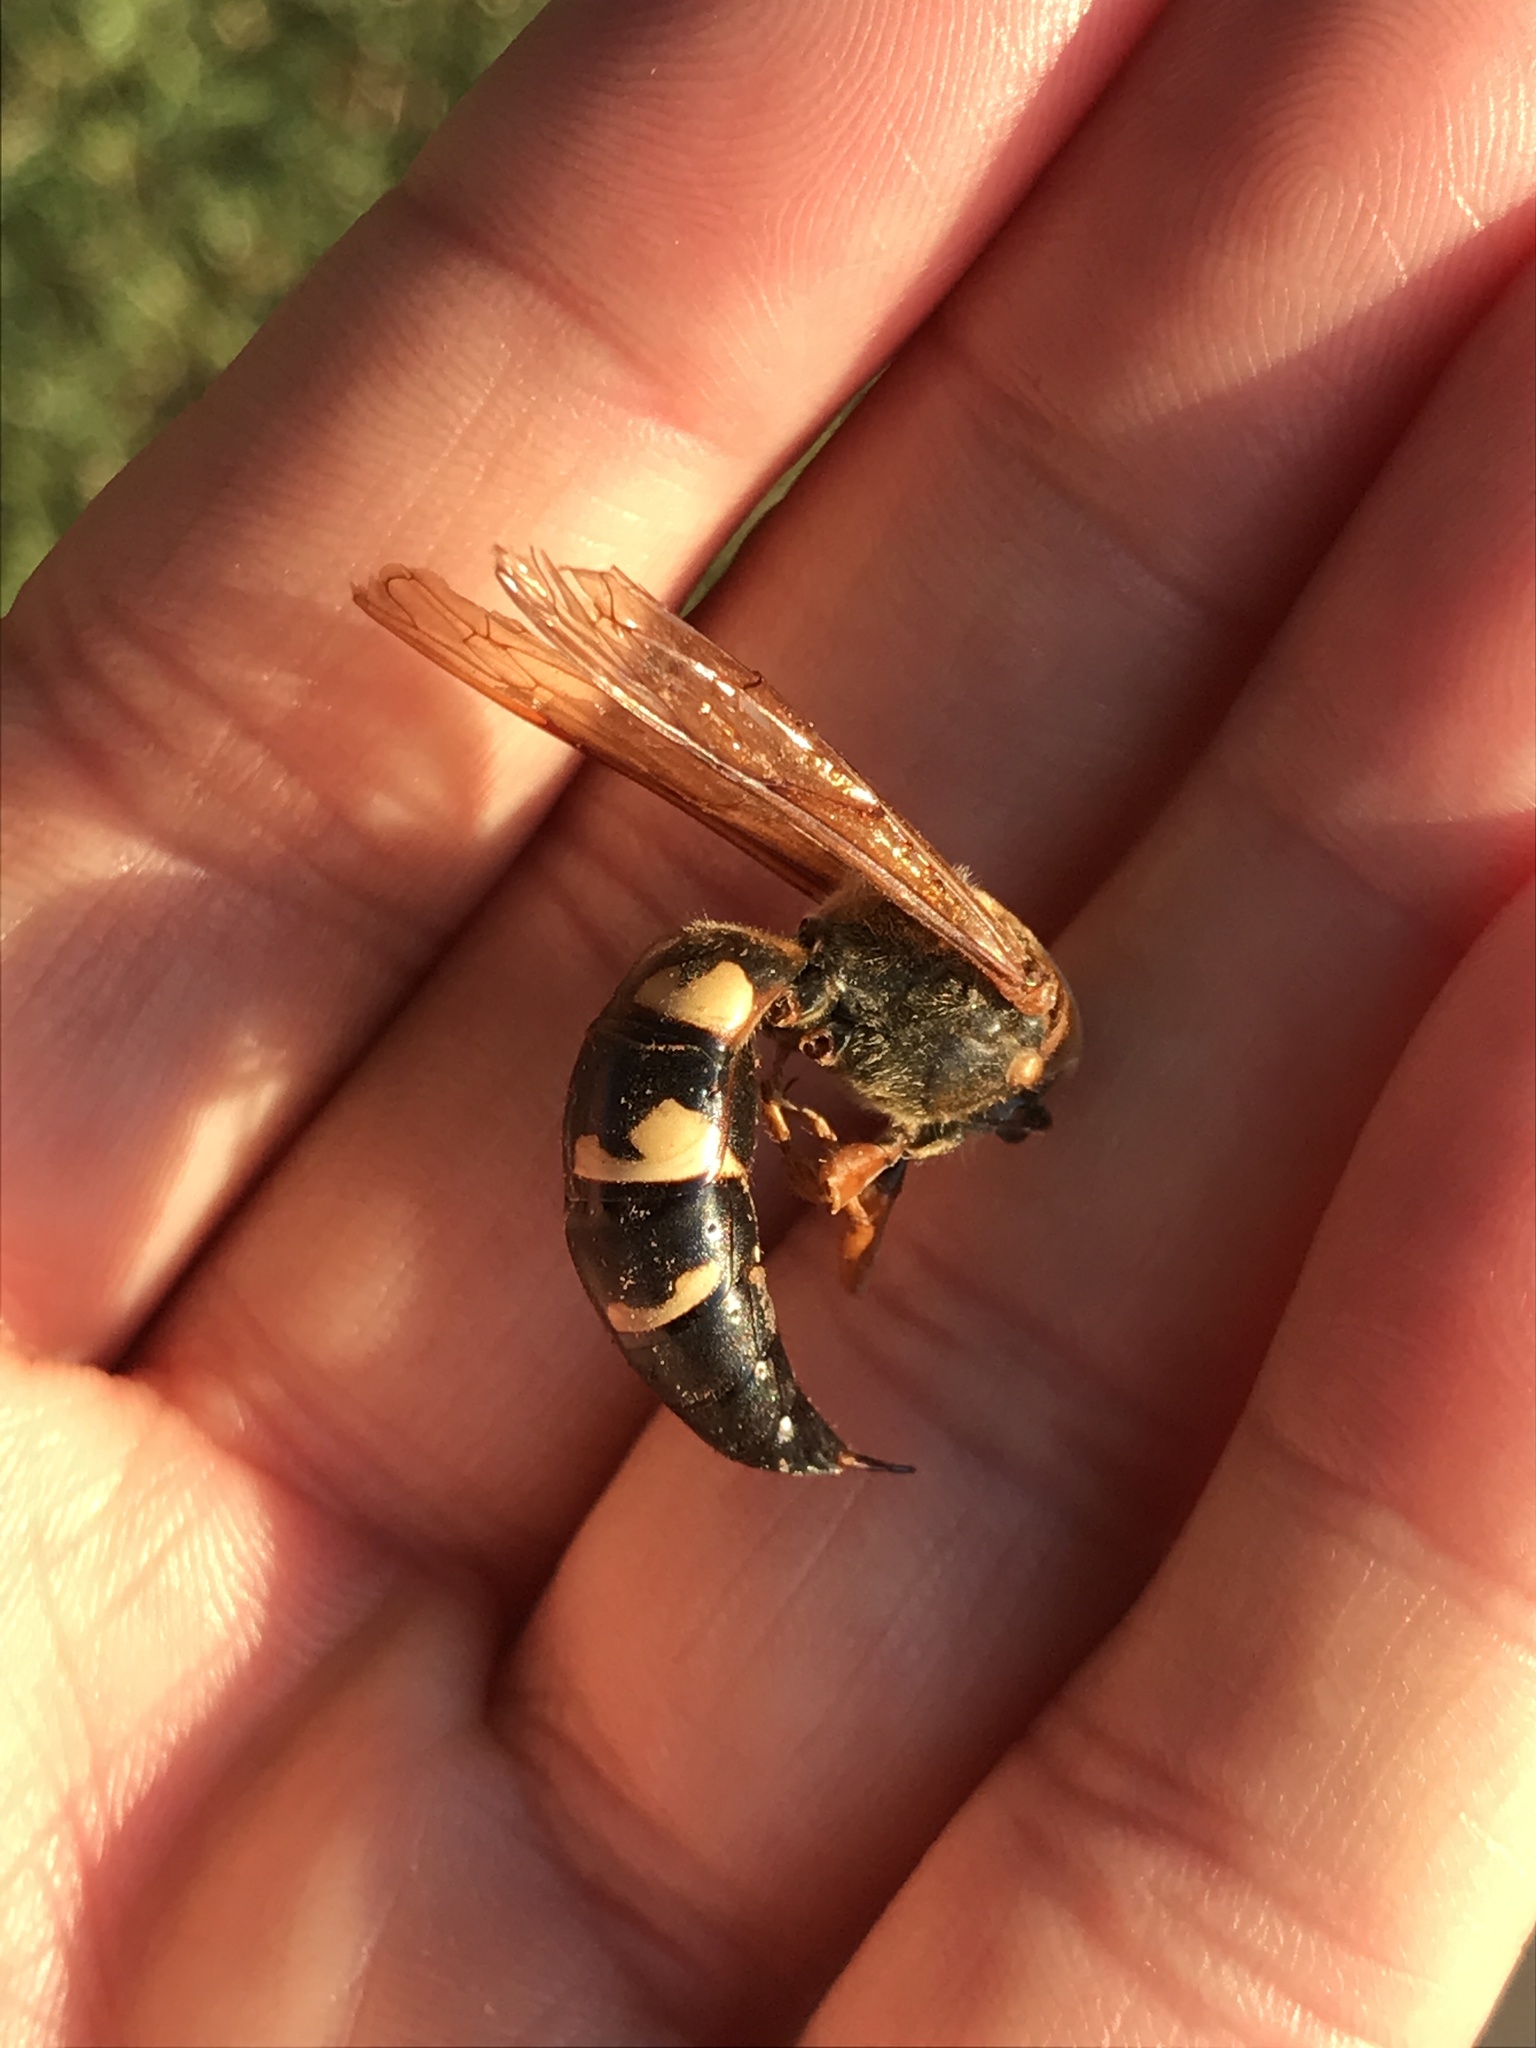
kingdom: Animalia
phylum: Arthropoda
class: Insecta
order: Hymenoptera
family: Crabronidae
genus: Sphecius
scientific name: Sphecius speciosus
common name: Cicada killer
